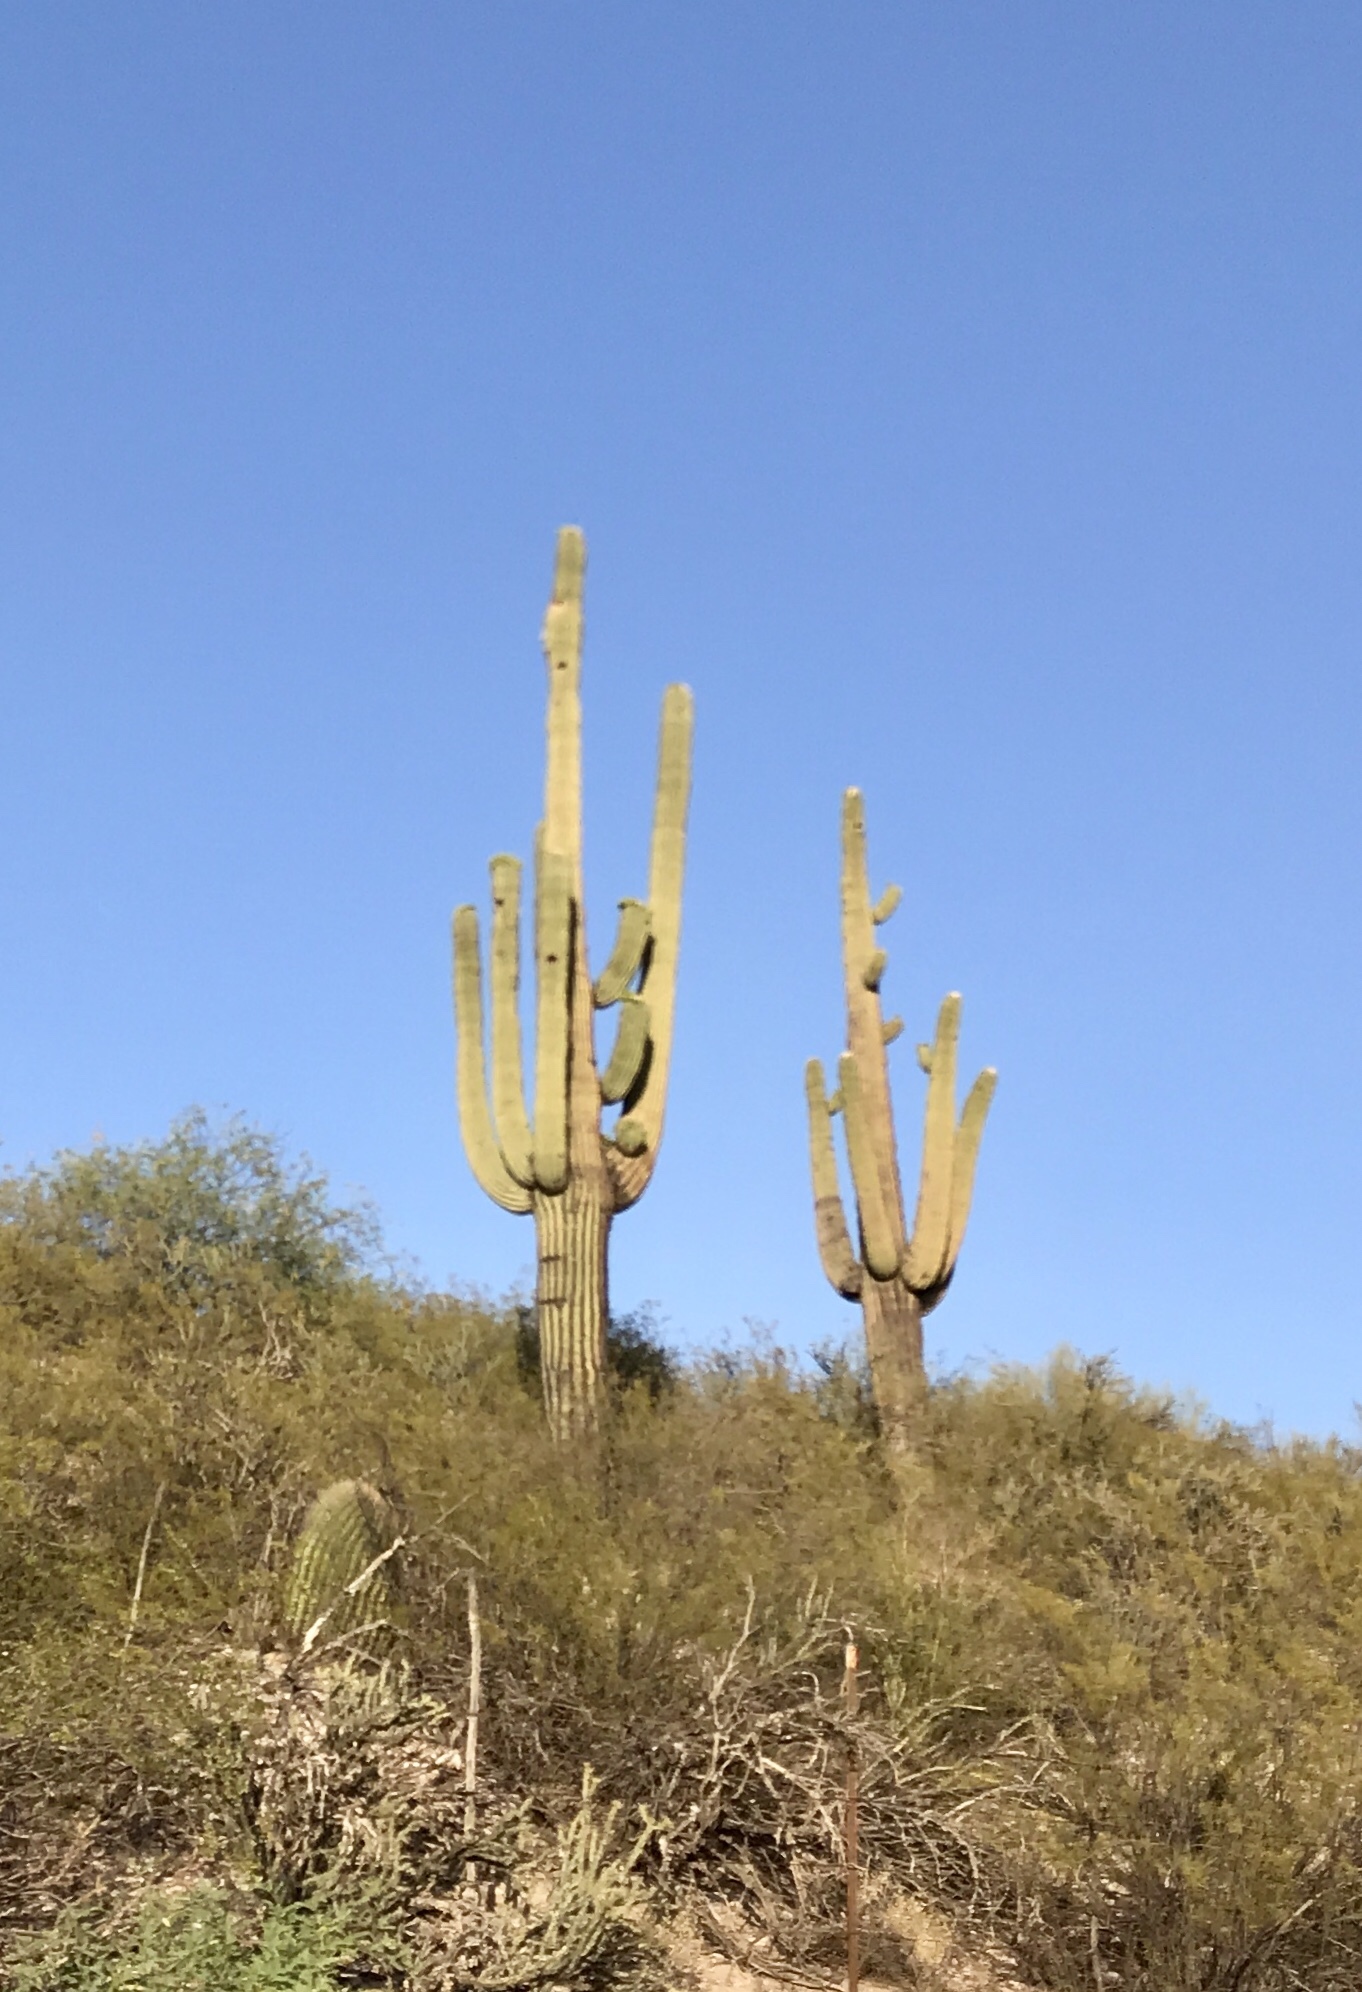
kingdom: Plantae
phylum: Tracheophyta
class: Magnoliopsida
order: Caryophyllales
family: Cactaceae
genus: Carnegiea
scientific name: Carnegiea gigantea
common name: Saguaro
